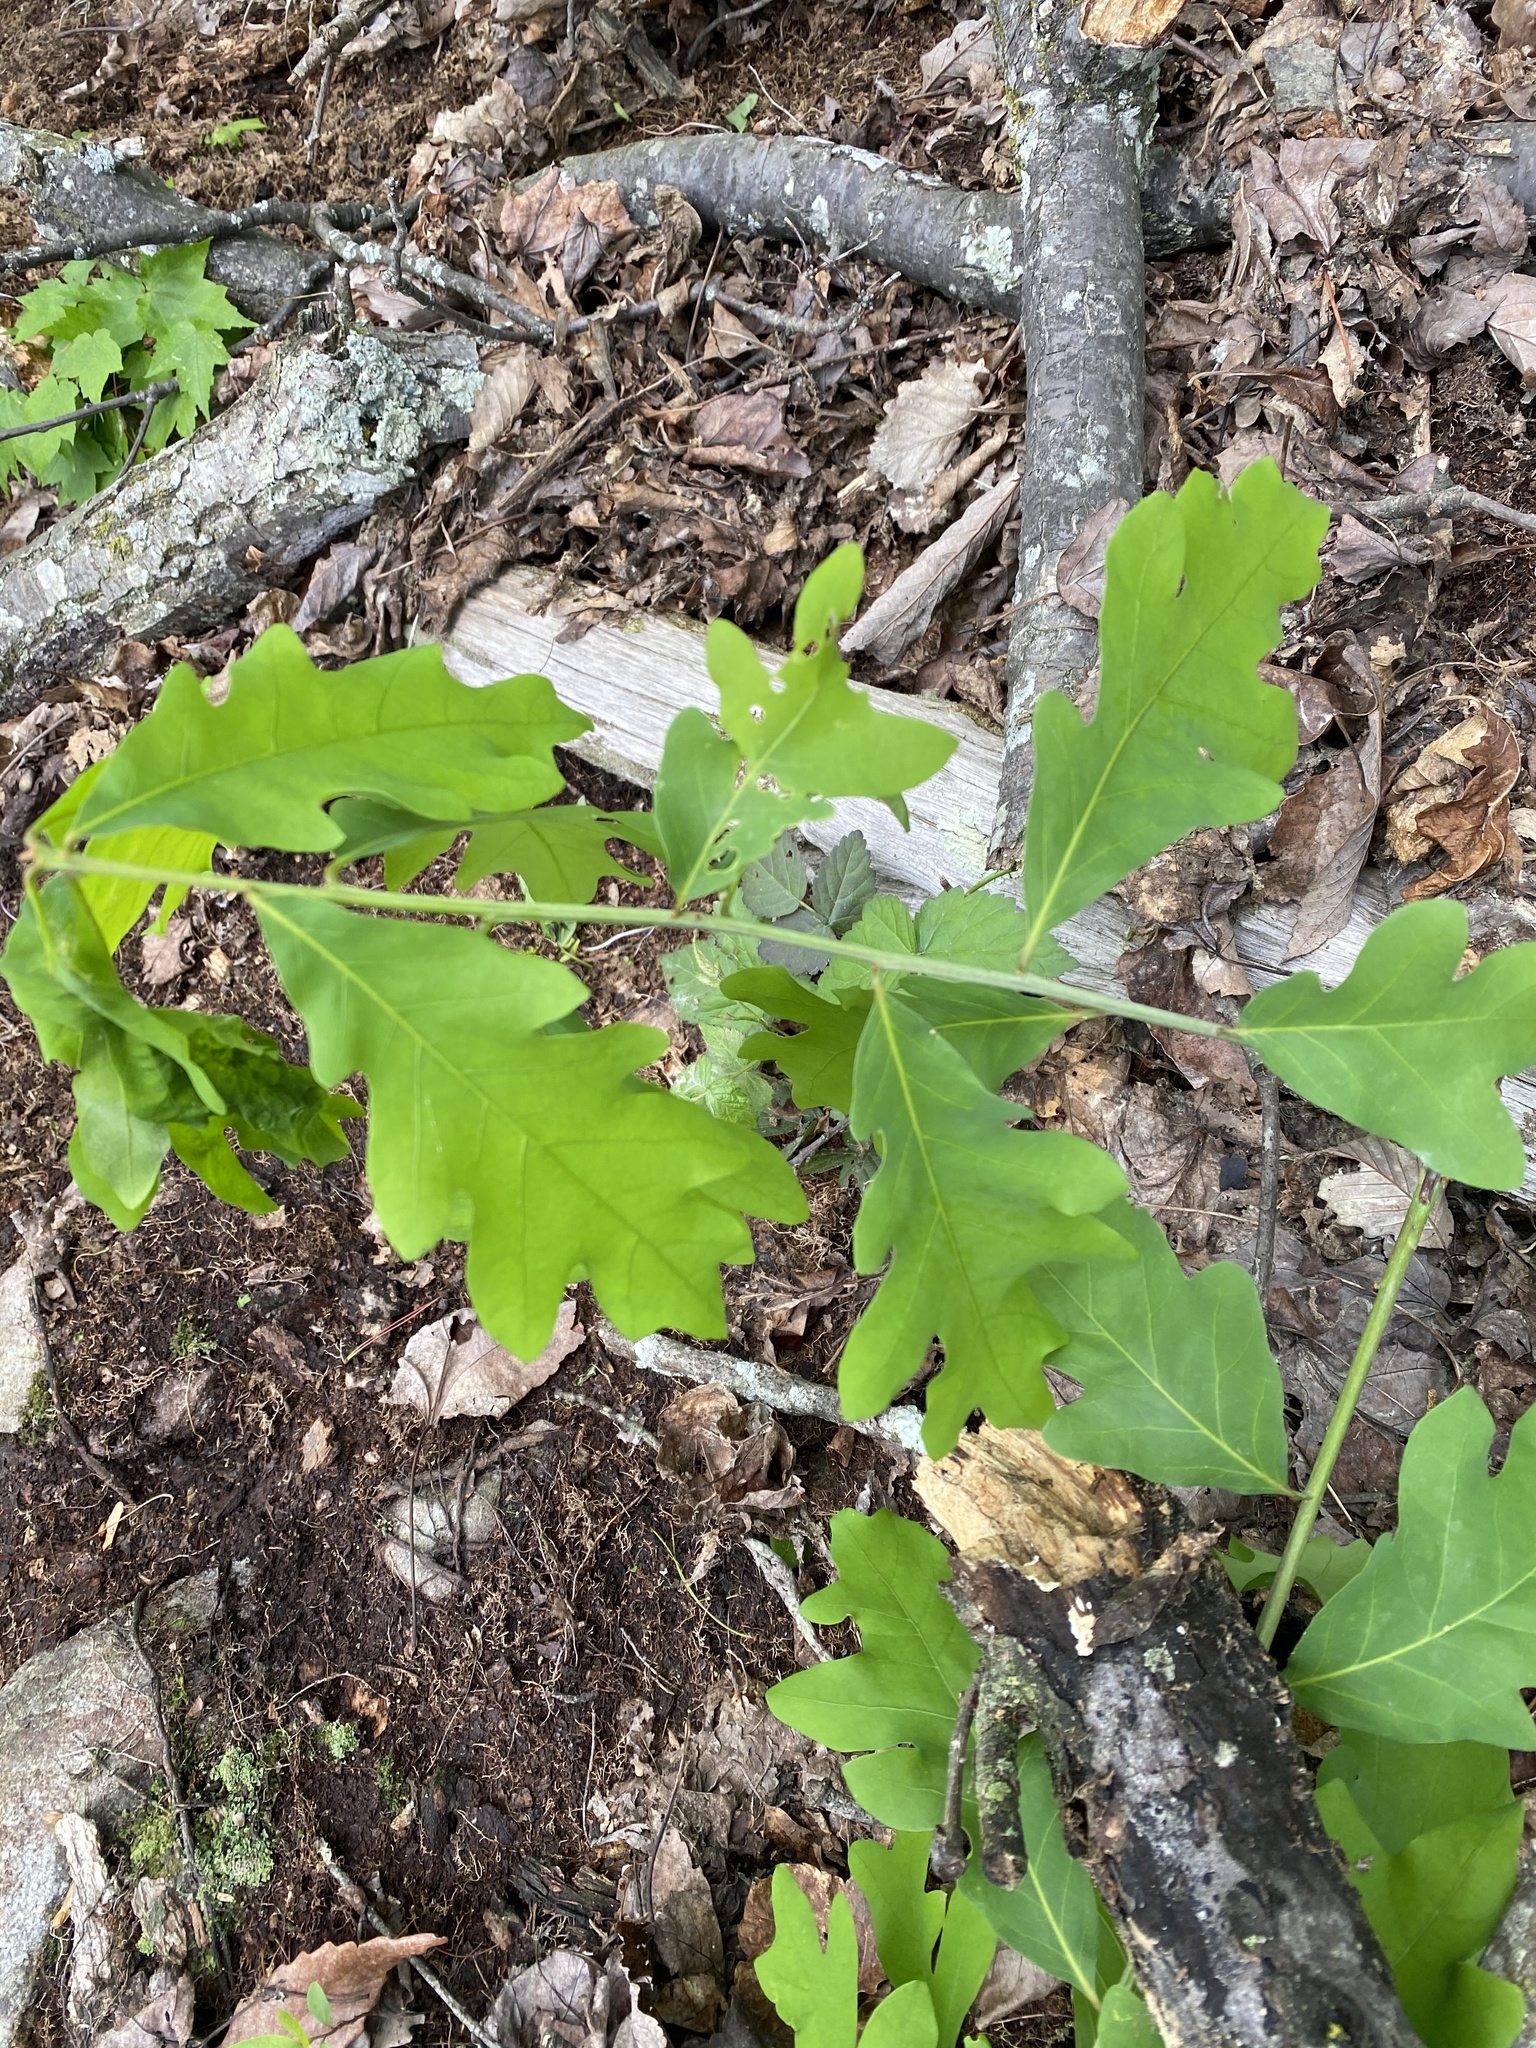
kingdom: Plantae
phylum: Tracheophyta
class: Magnoliopsida
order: Fagales
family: Fagaceae
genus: Quercus
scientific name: Quercus alba
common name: White oak
